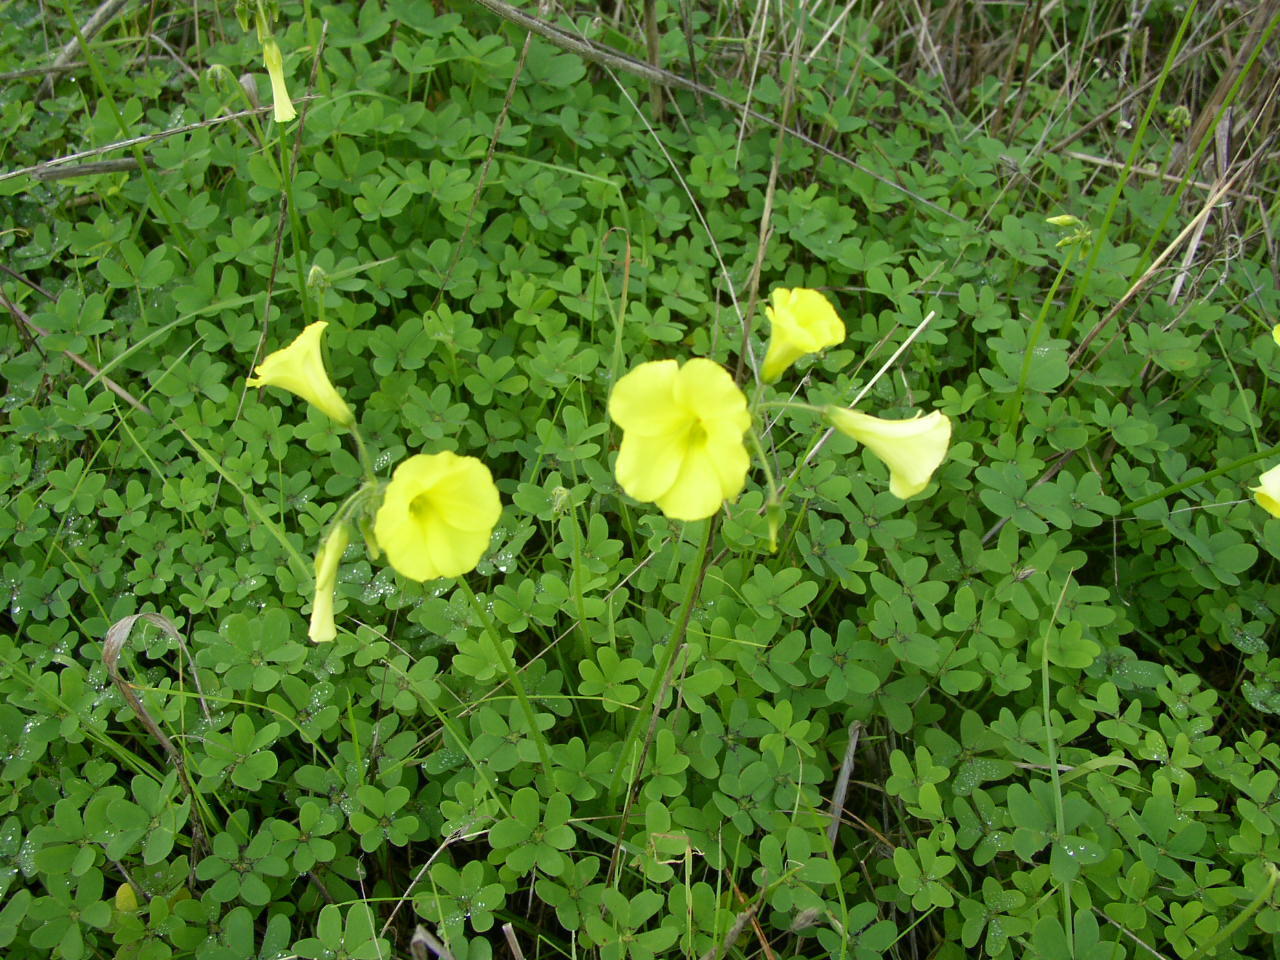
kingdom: Plantae
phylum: Tracheophyta
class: Magnoliopsida
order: Oxalidales
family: Oxalidaceae
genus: Oxalis
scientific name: Oxalis pes-caprae
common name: Bermuda-buttercup
